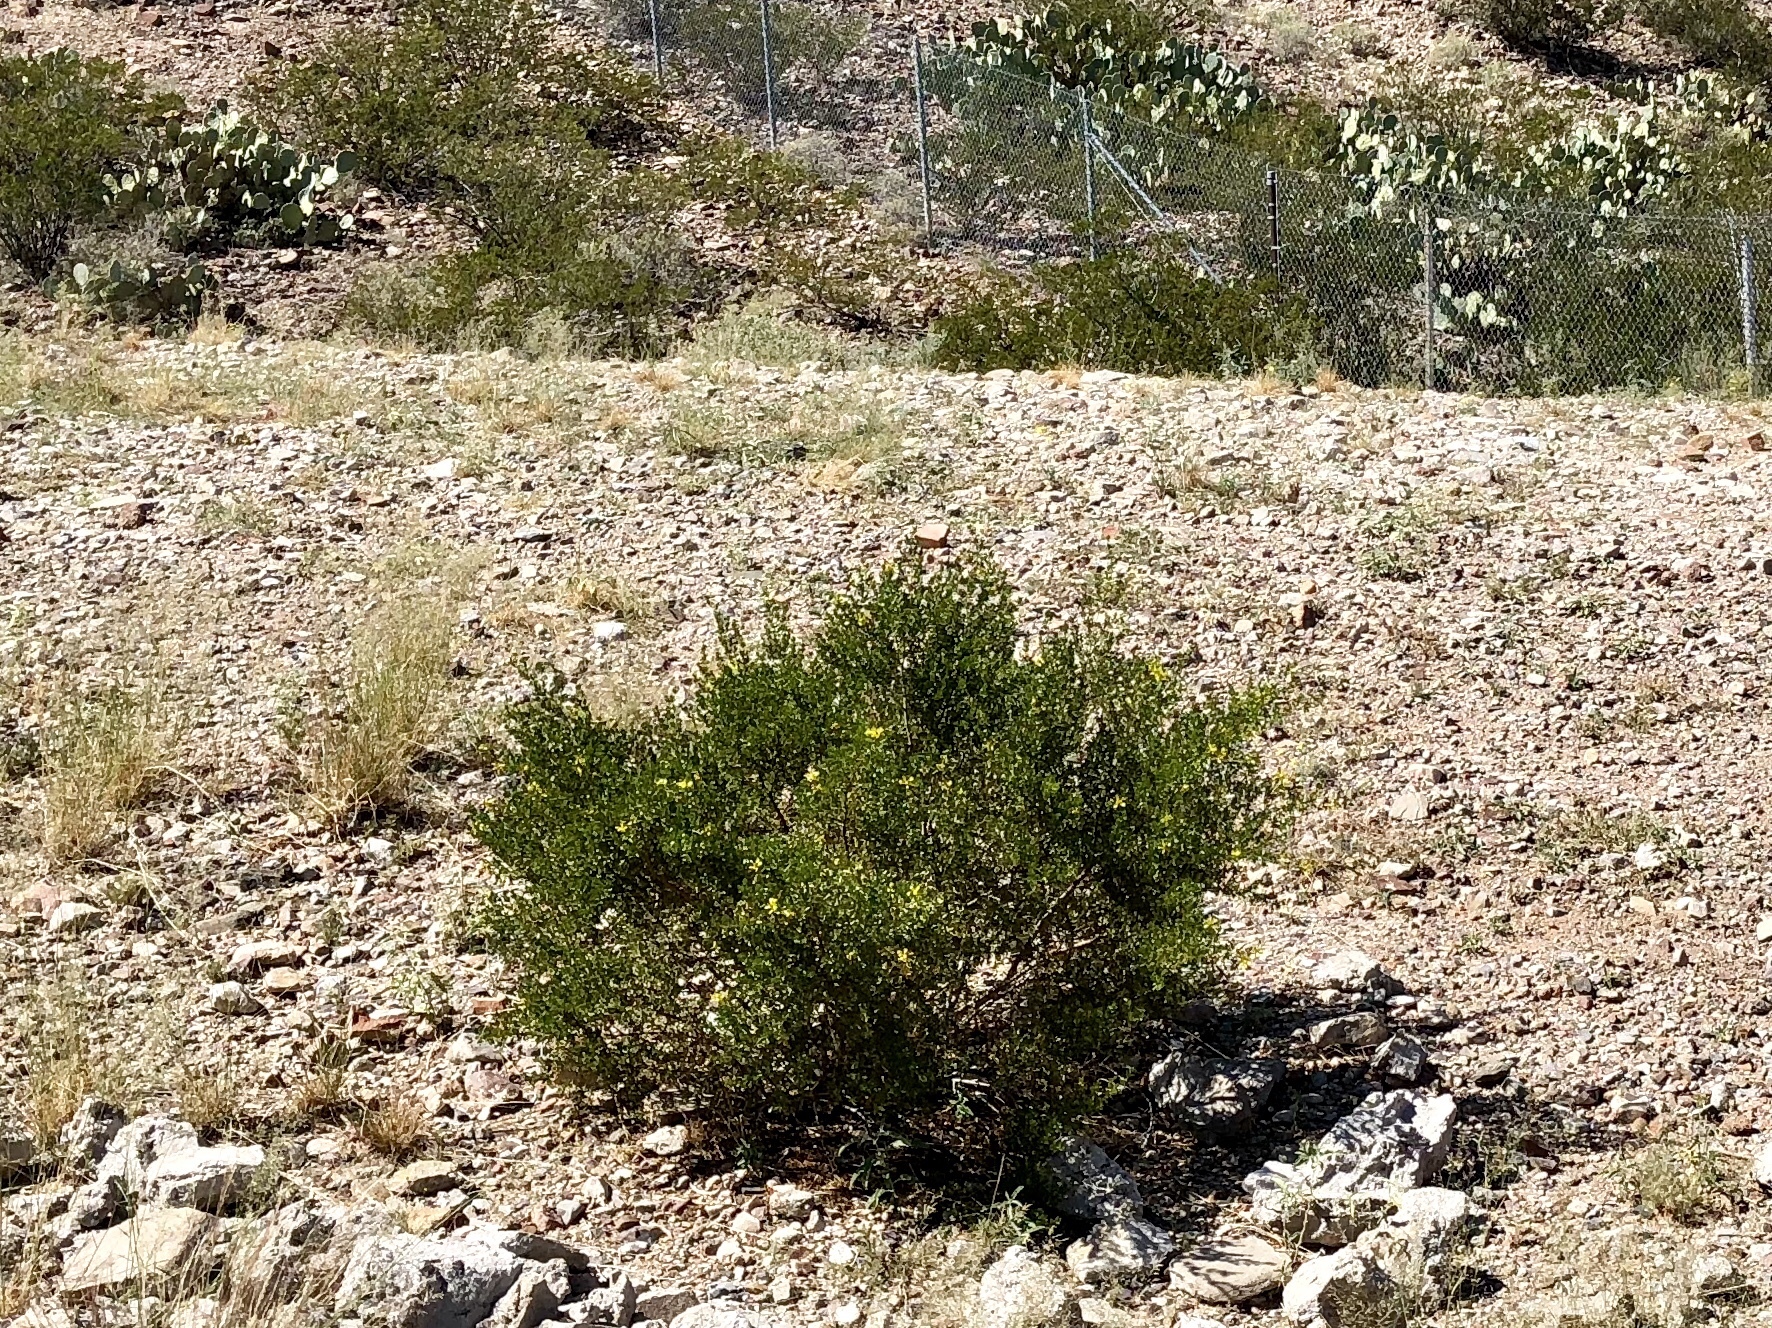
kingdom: Plantae
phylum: Tracheophyta
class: Magnoliopsida
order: Zygophyllales
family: Zygophyllaceae
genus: Larrea
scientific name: Larrea tridentata
